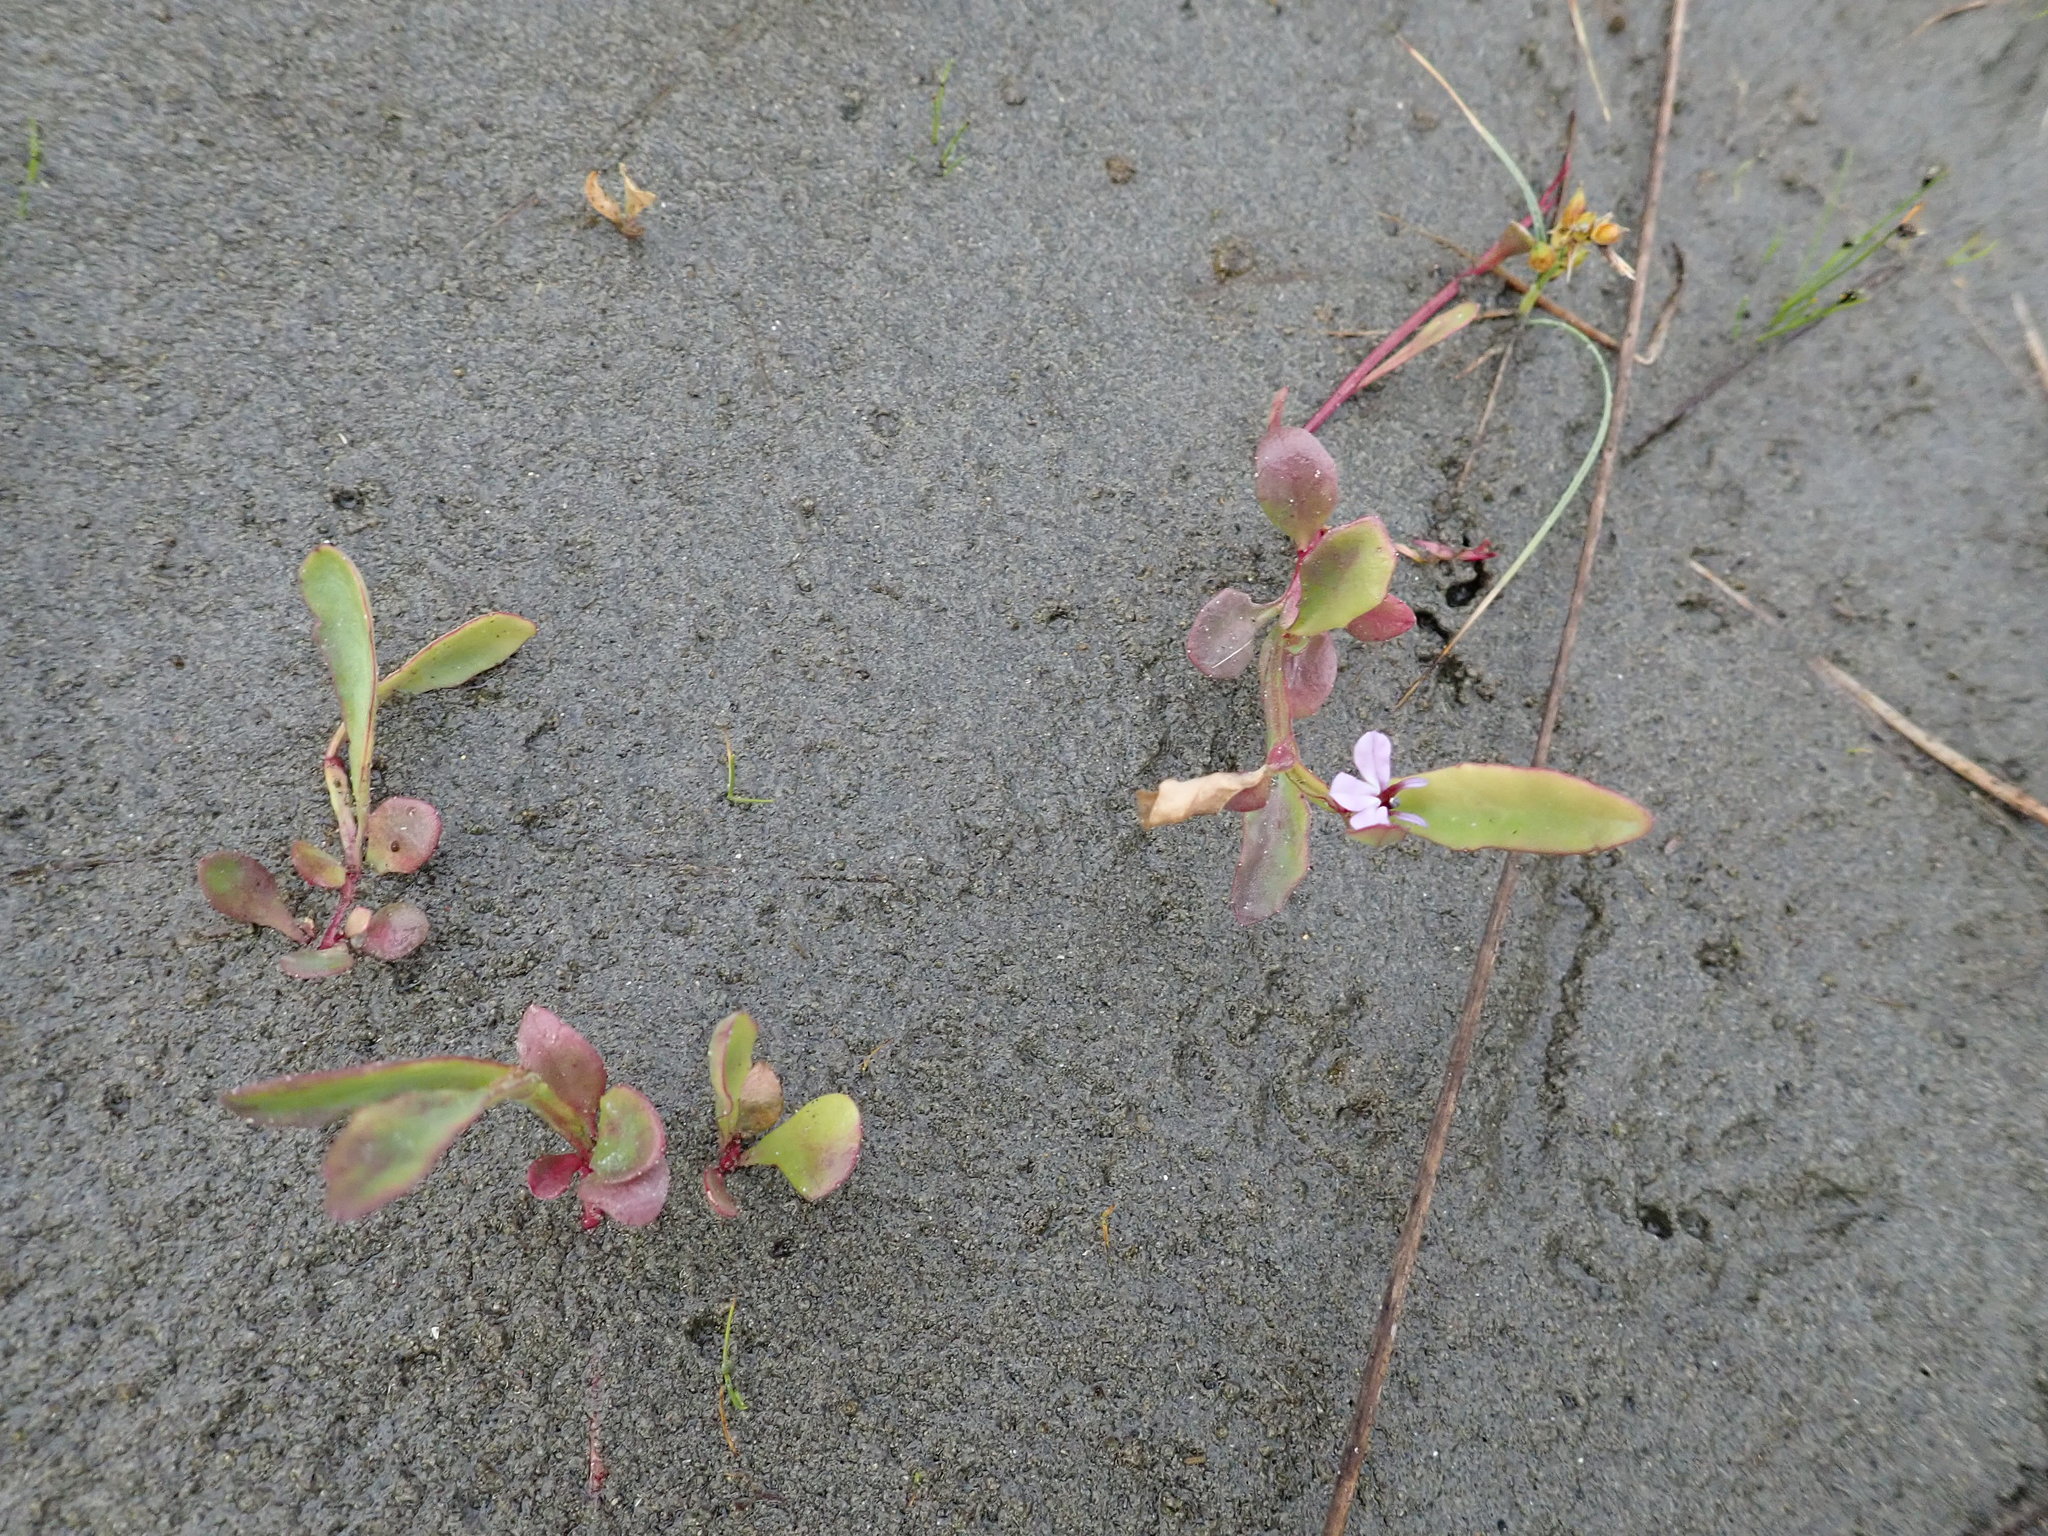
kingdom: Plantae
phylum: Tracheophyta
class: Magnoliopsida
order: Asterales
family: Campanulaceae
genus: Lobelia
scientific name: Lobelia anceps
